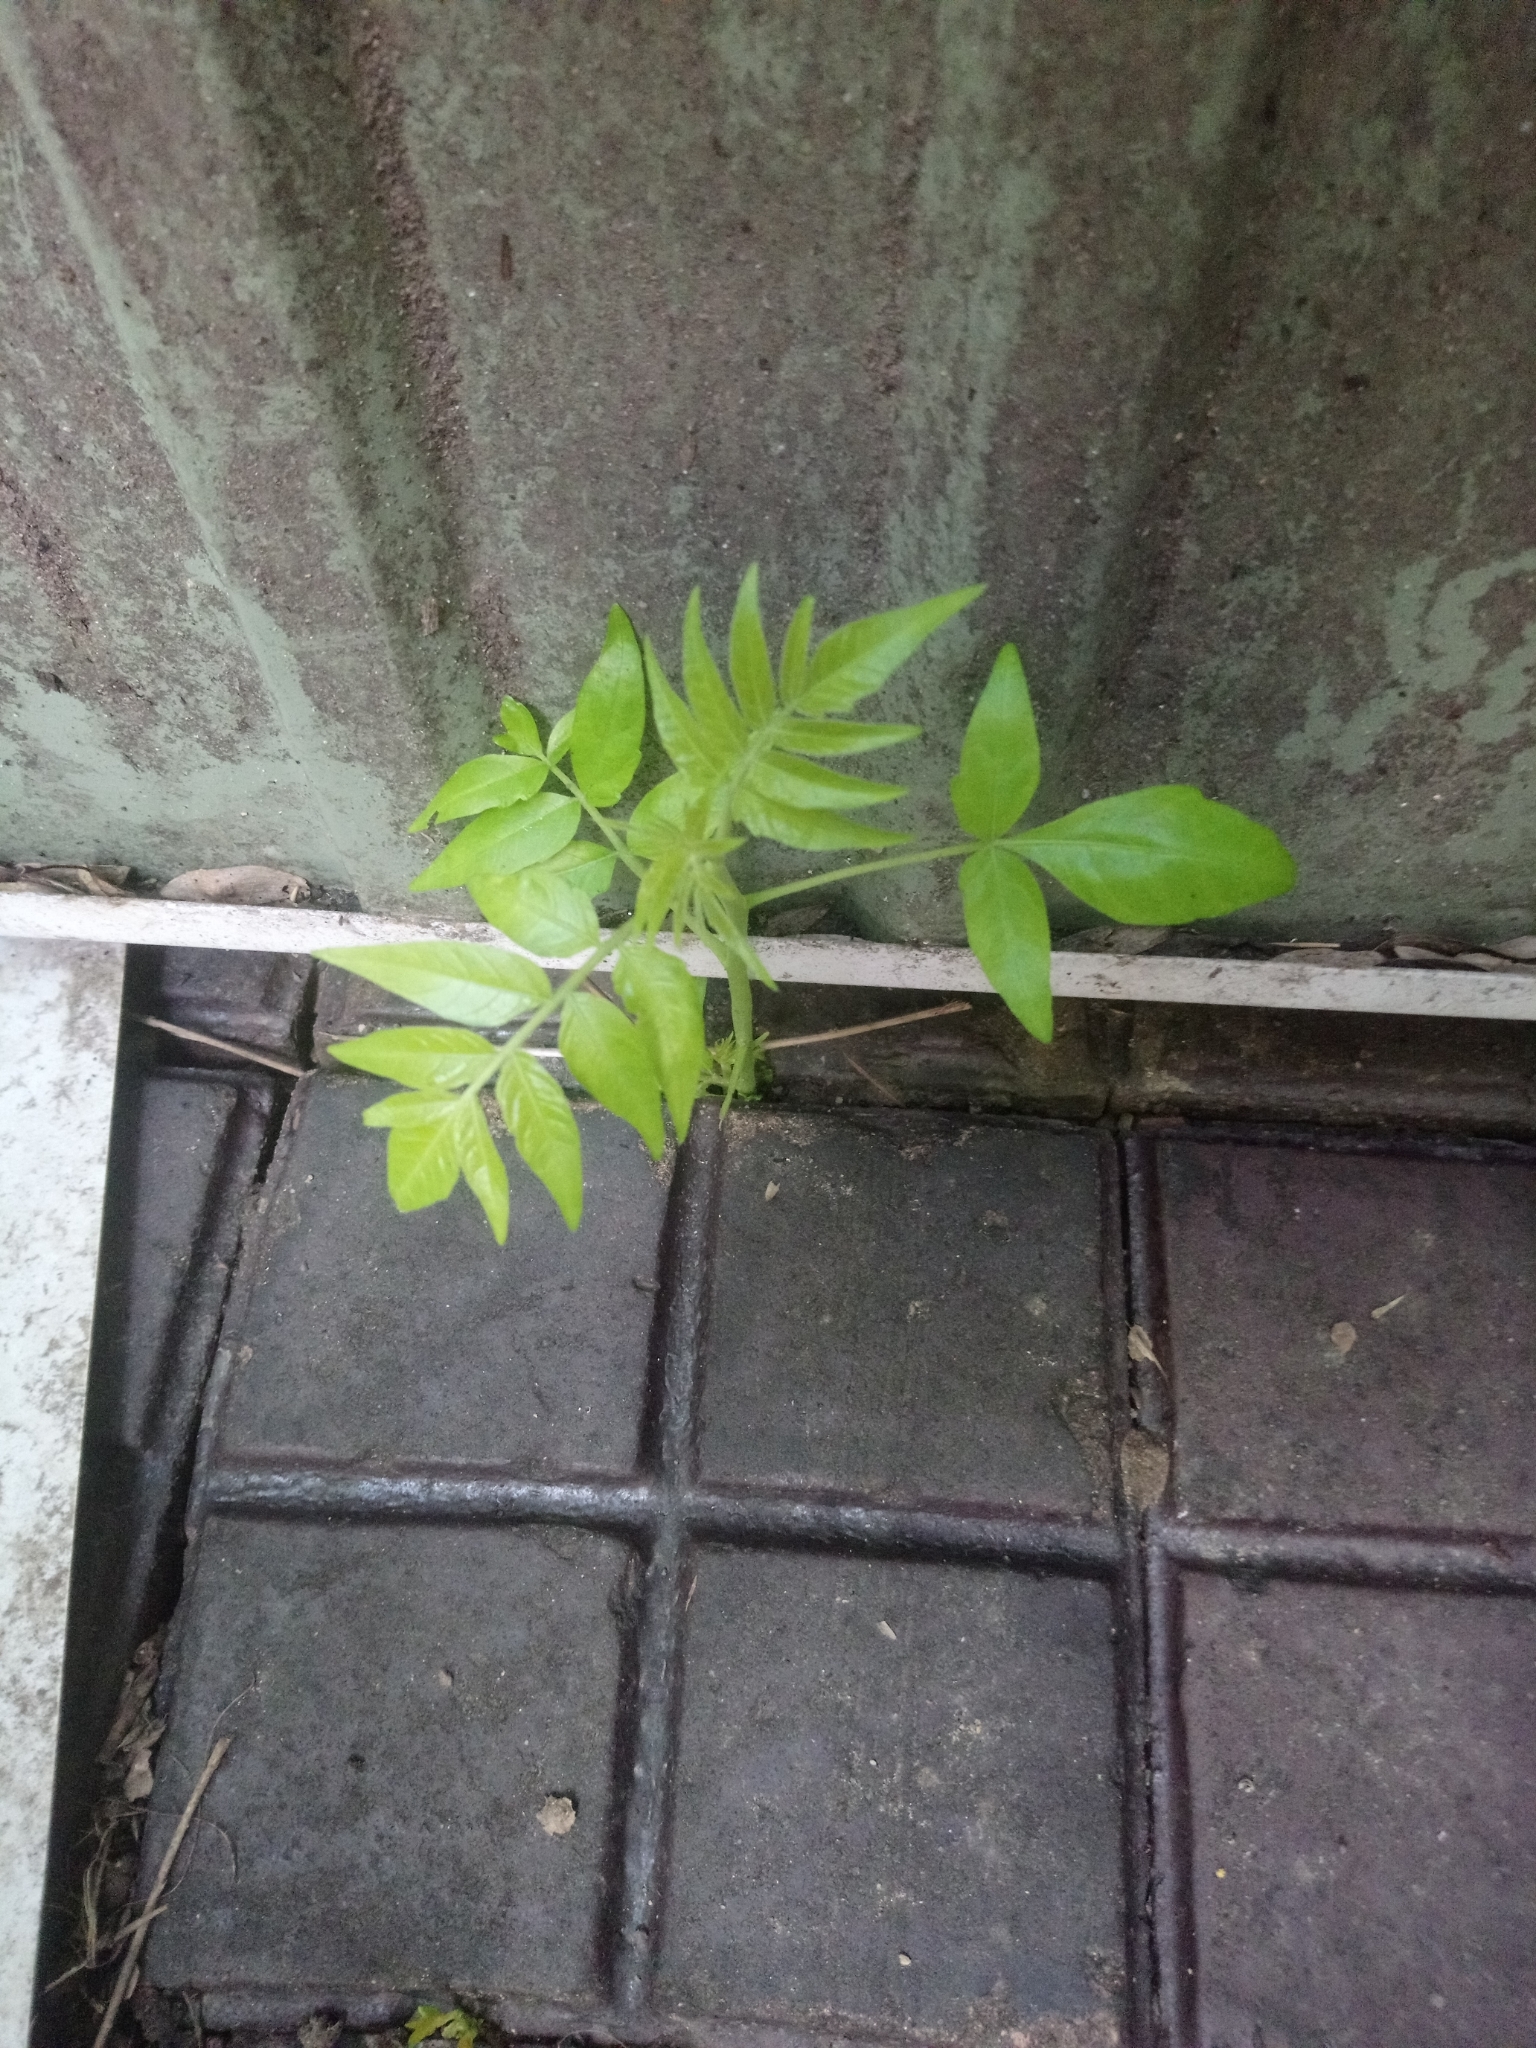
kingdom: Plantae
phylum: Tracheophyta
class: Magnoliopsida
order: Sapindales
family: Simaroubaceae
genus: Ailanthus
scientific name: Ailanthus altissima
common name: Tree-of-heaven
